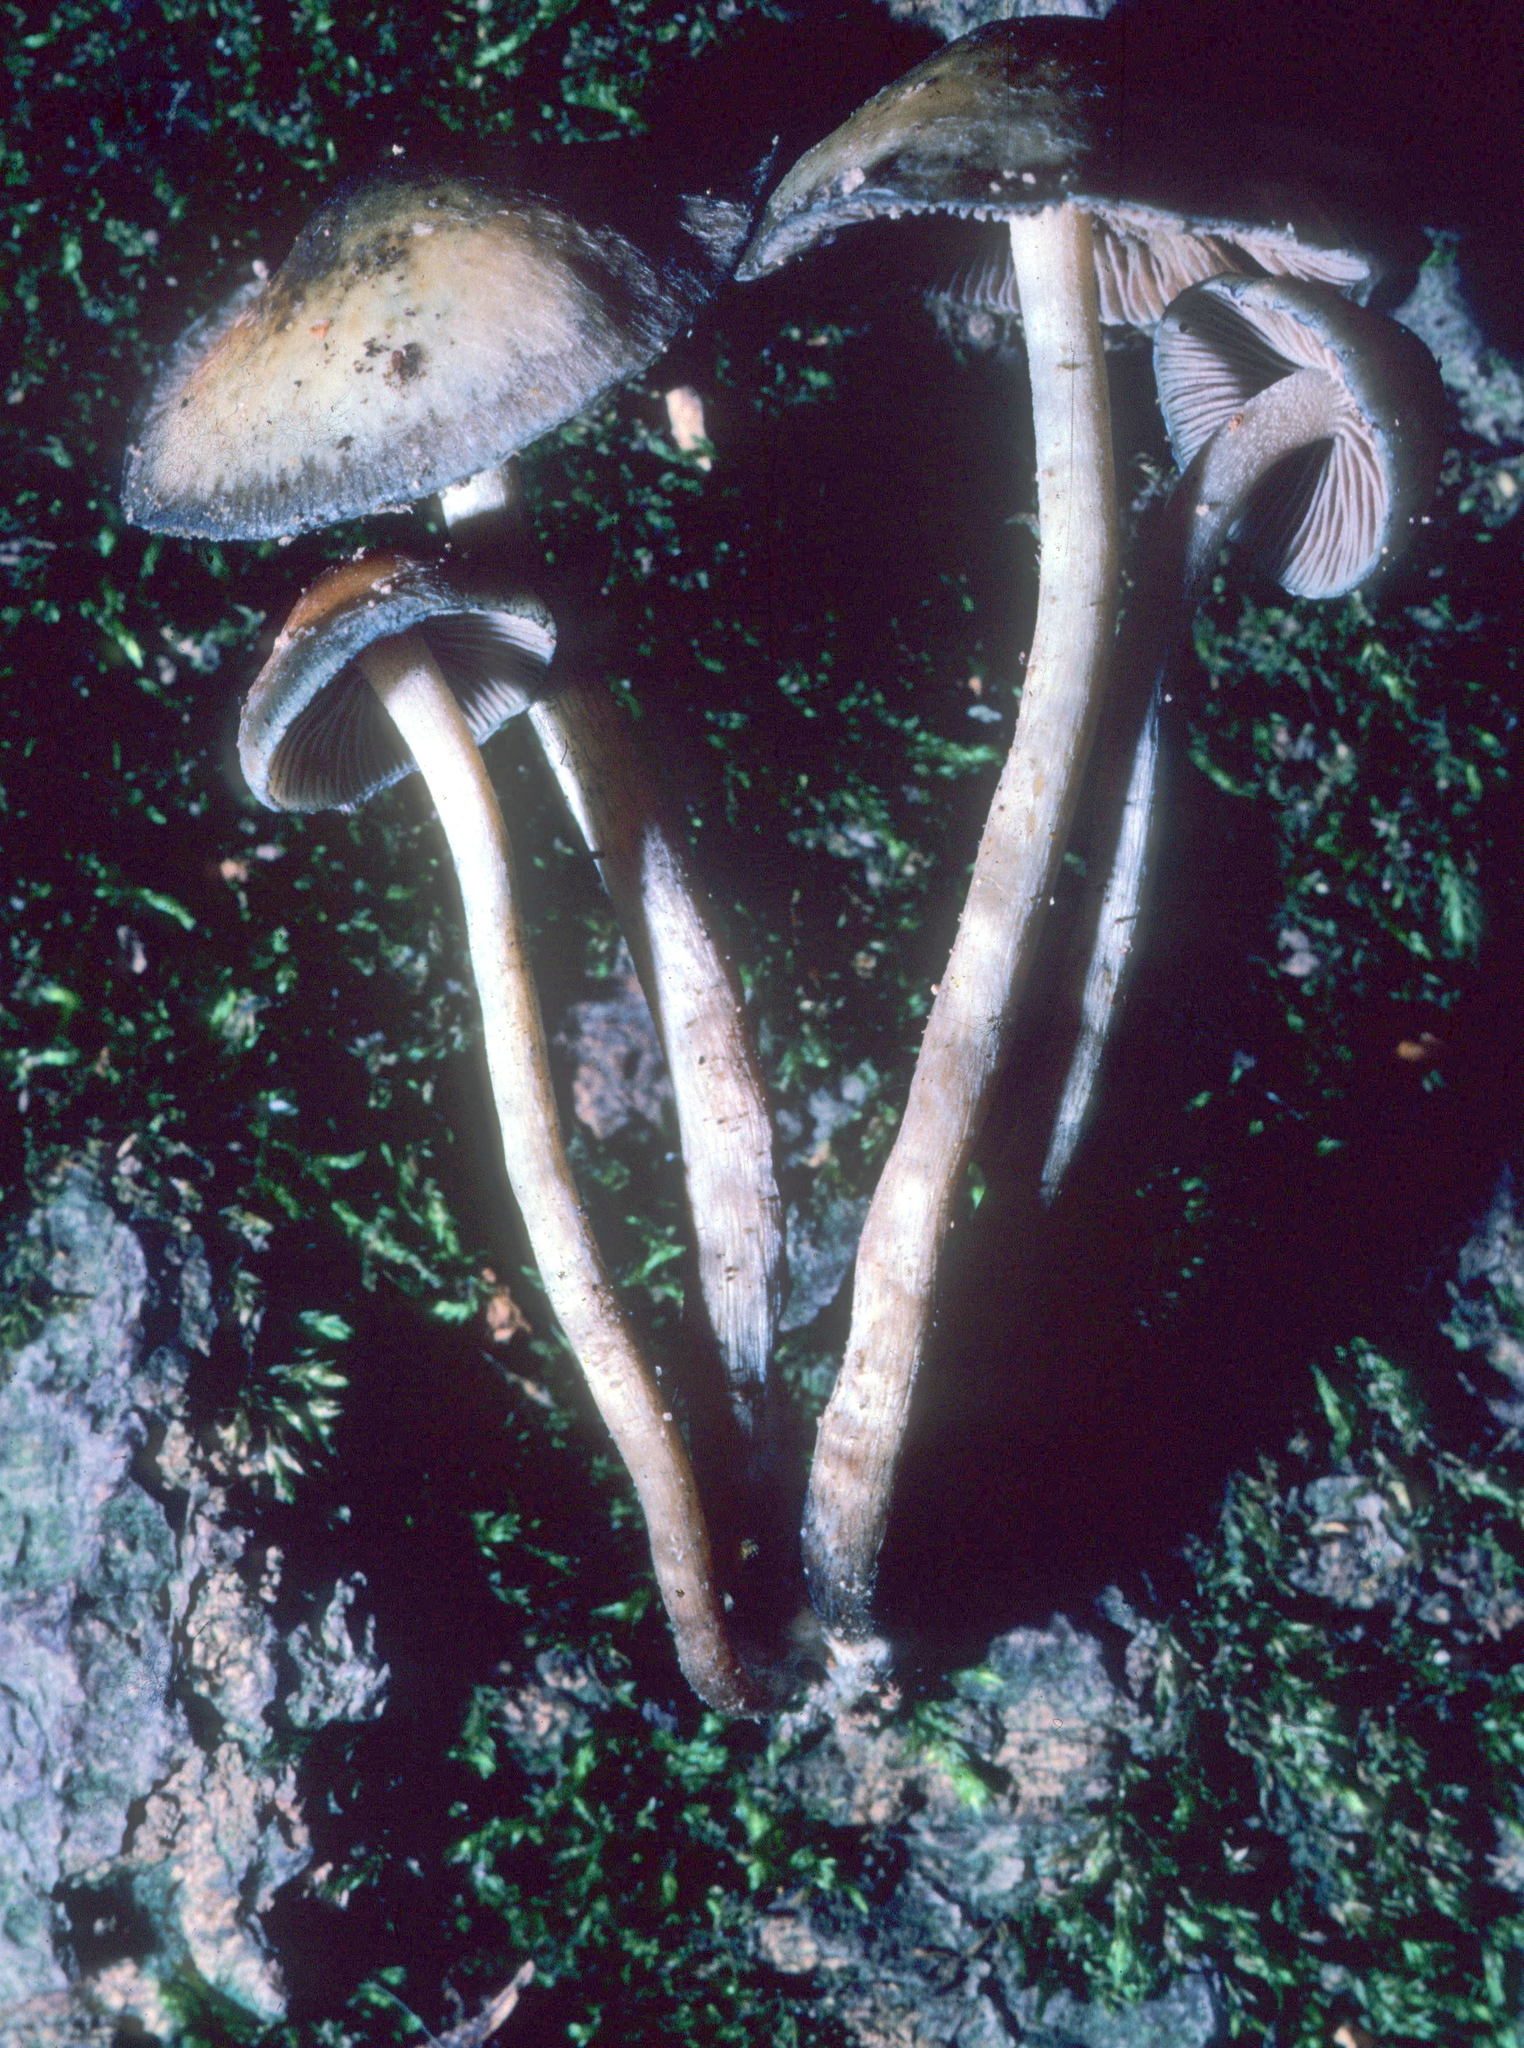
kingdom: Fungi
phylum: Basidiomycota
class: Agaricomycetes
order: Agaricales
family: Hymenogastraceae
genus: Psilocybe
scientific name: Psilocybe caerulipes
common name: Blue-foot
